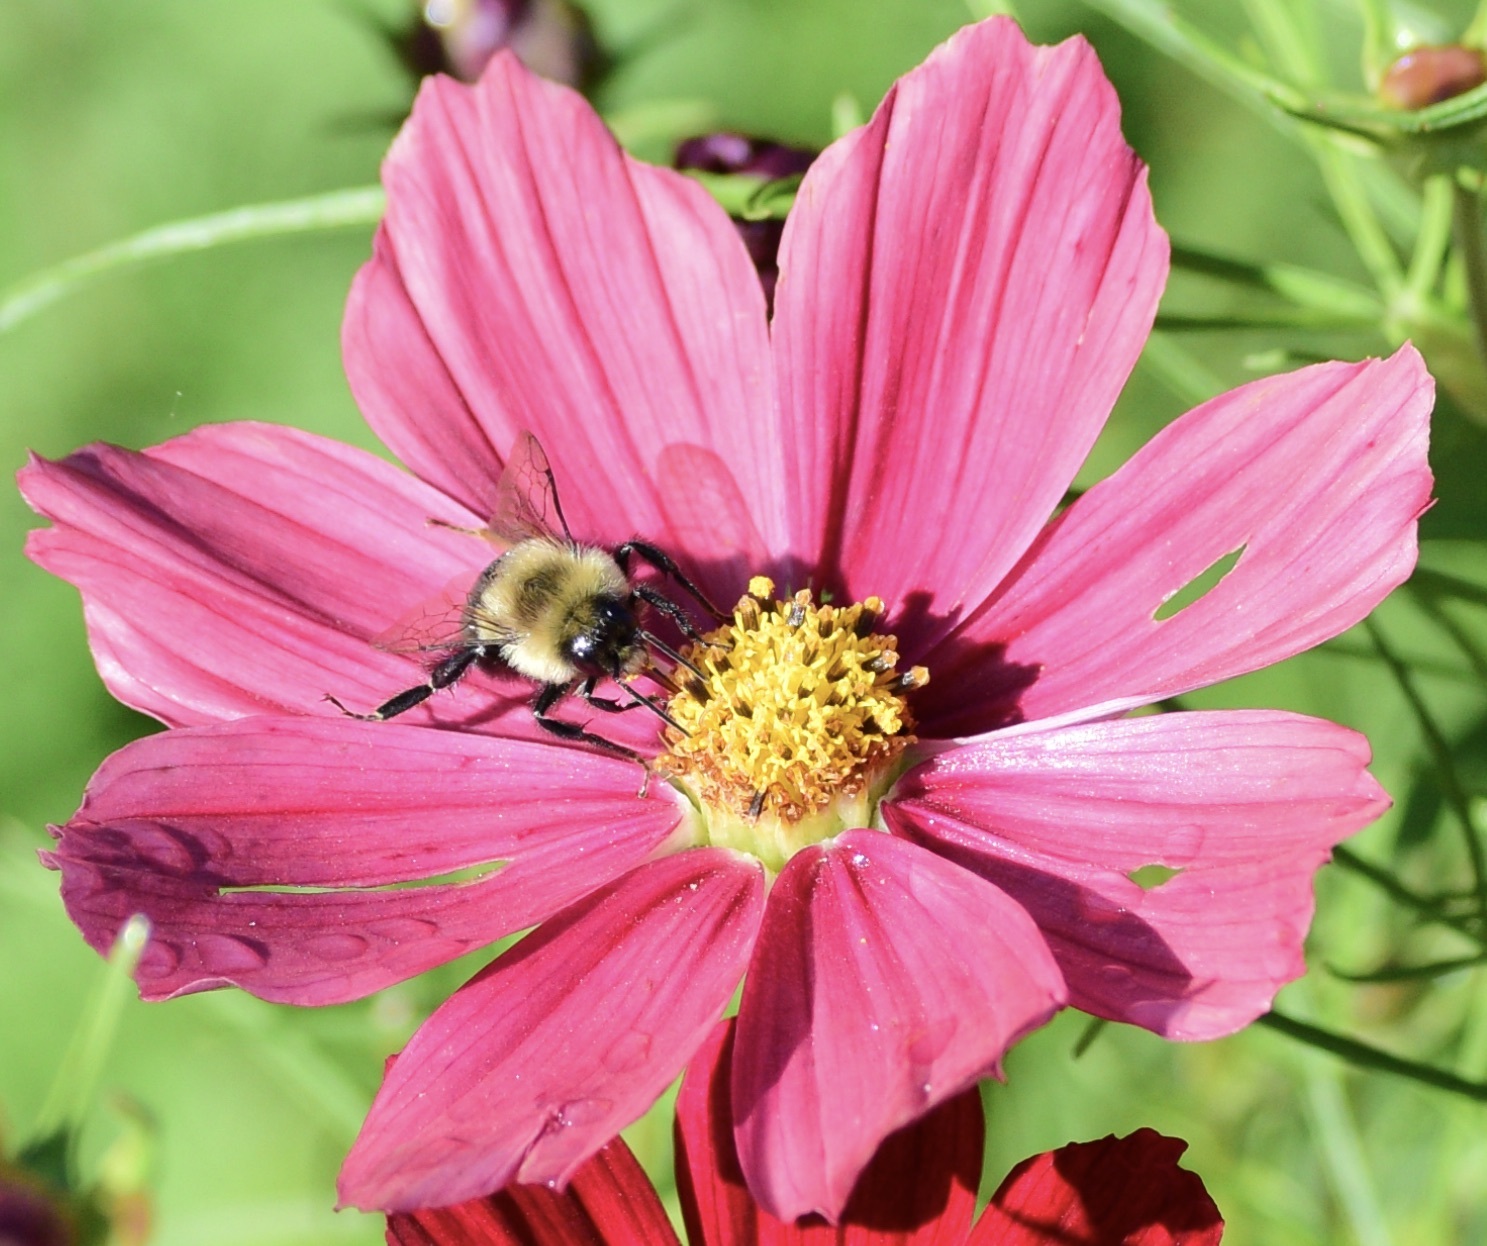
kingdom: Animalia
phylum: Arthropoda
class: Insecta
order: Hymenoptera
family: Apidae
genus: Bombus
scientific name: Bombus impatiens
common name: Common eastern bumble bee
